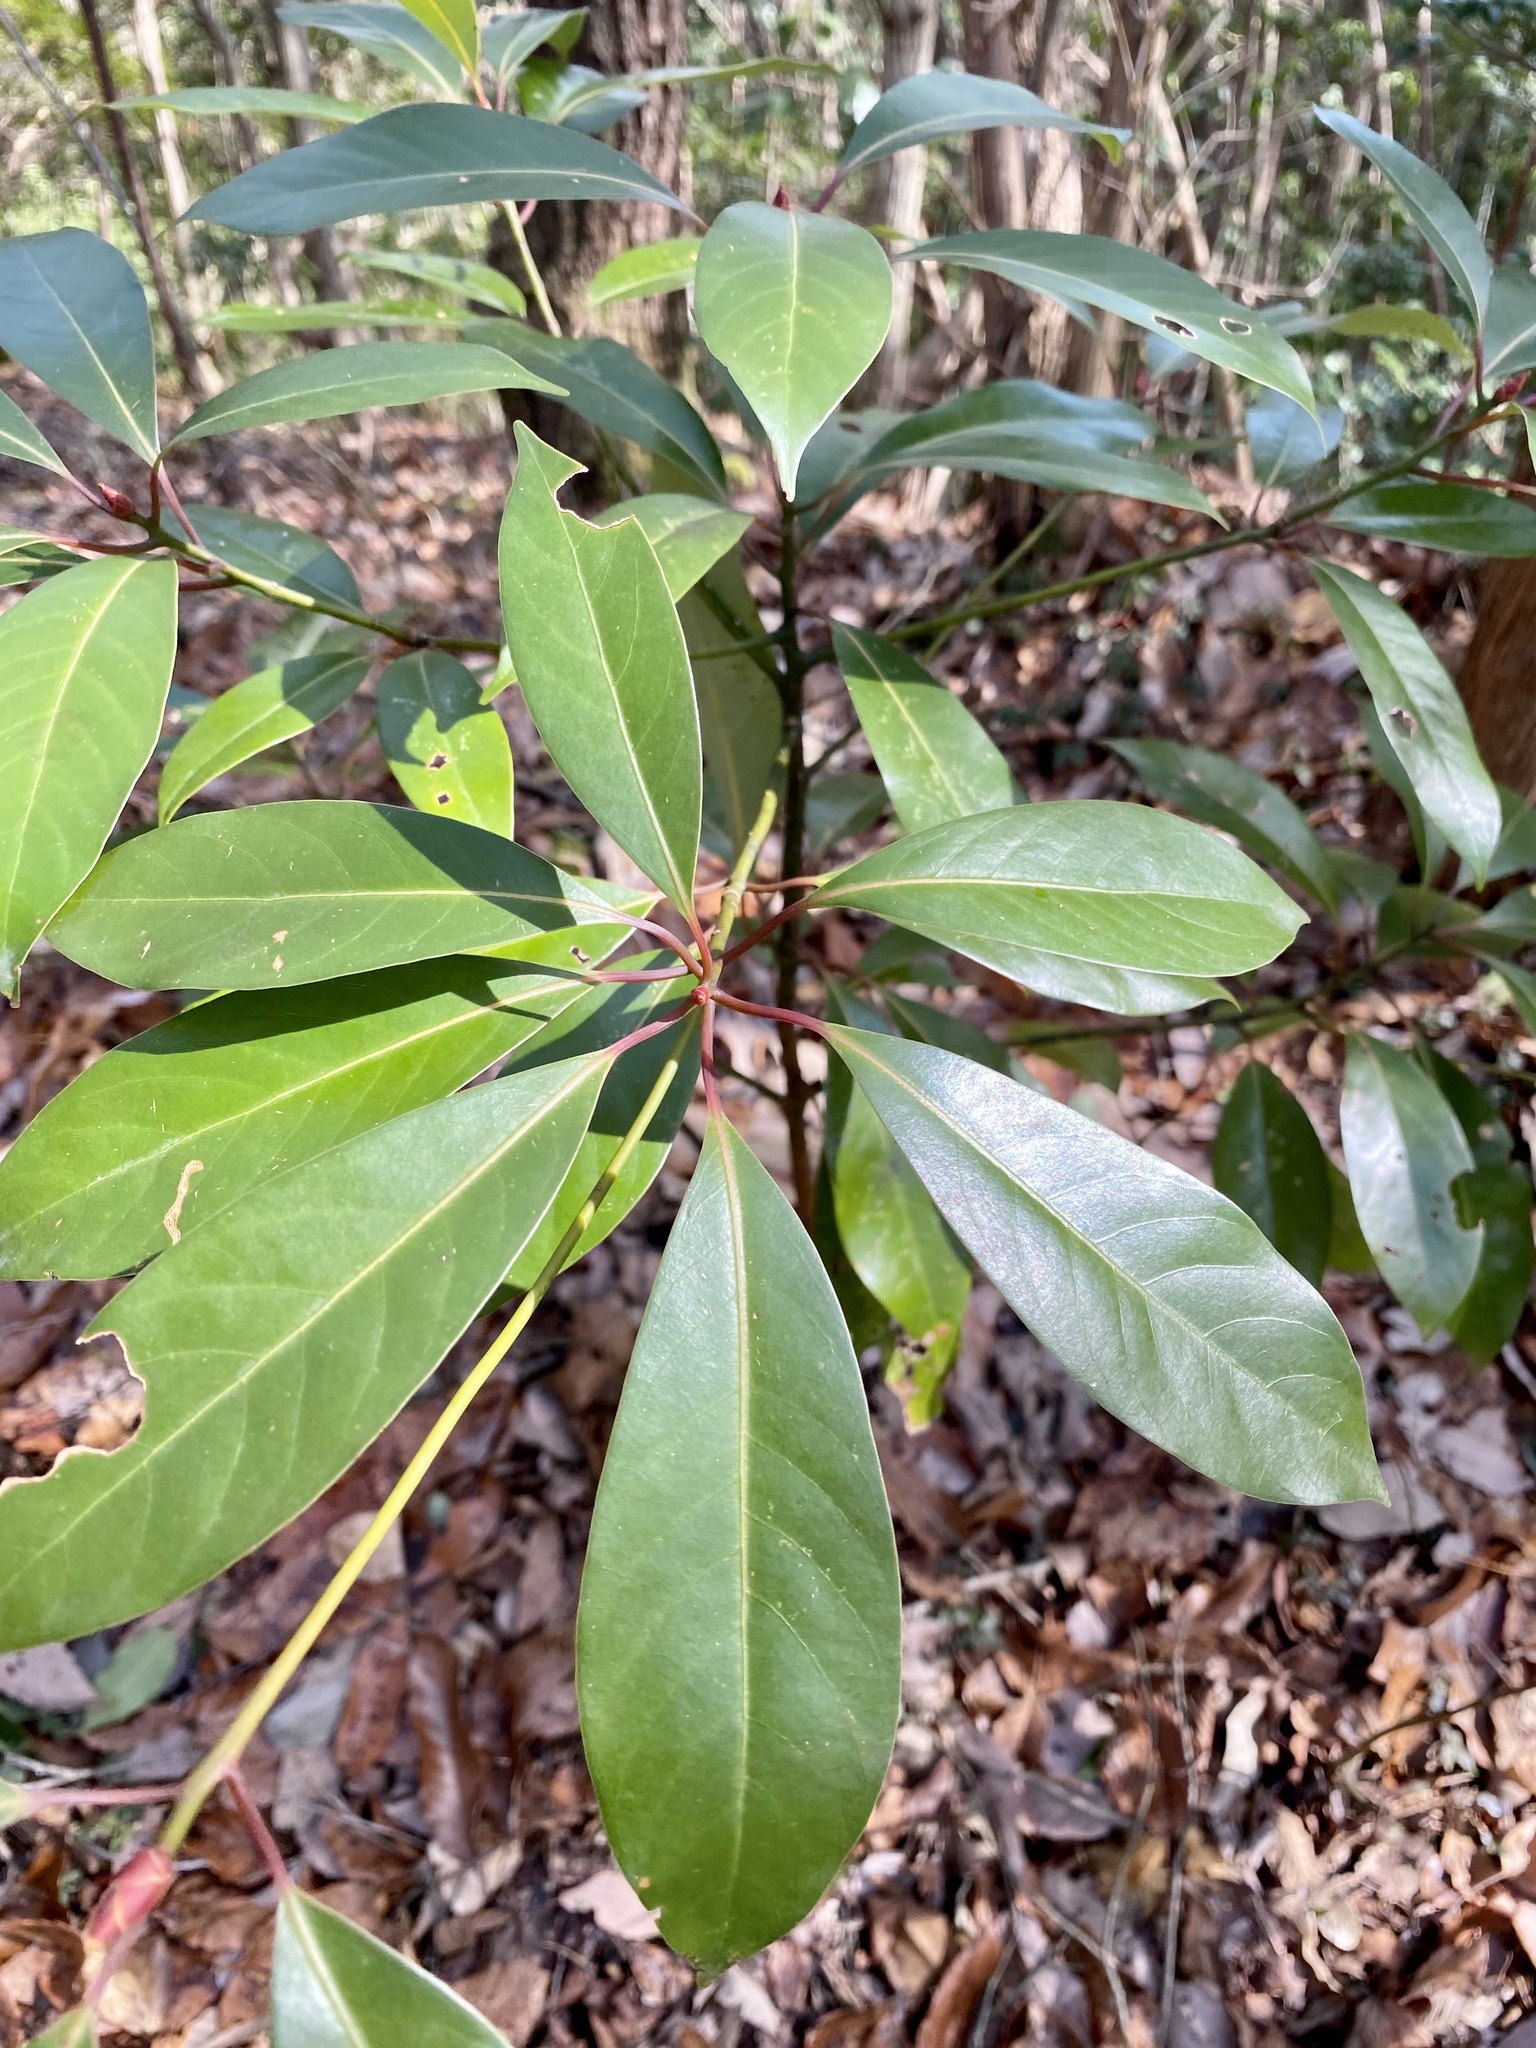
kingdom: Plantae
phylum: Tracheophyta
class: Magnoliopsida
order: Laurales
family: Lauraceae
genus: Machilus
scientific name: Machilus thunbergii
